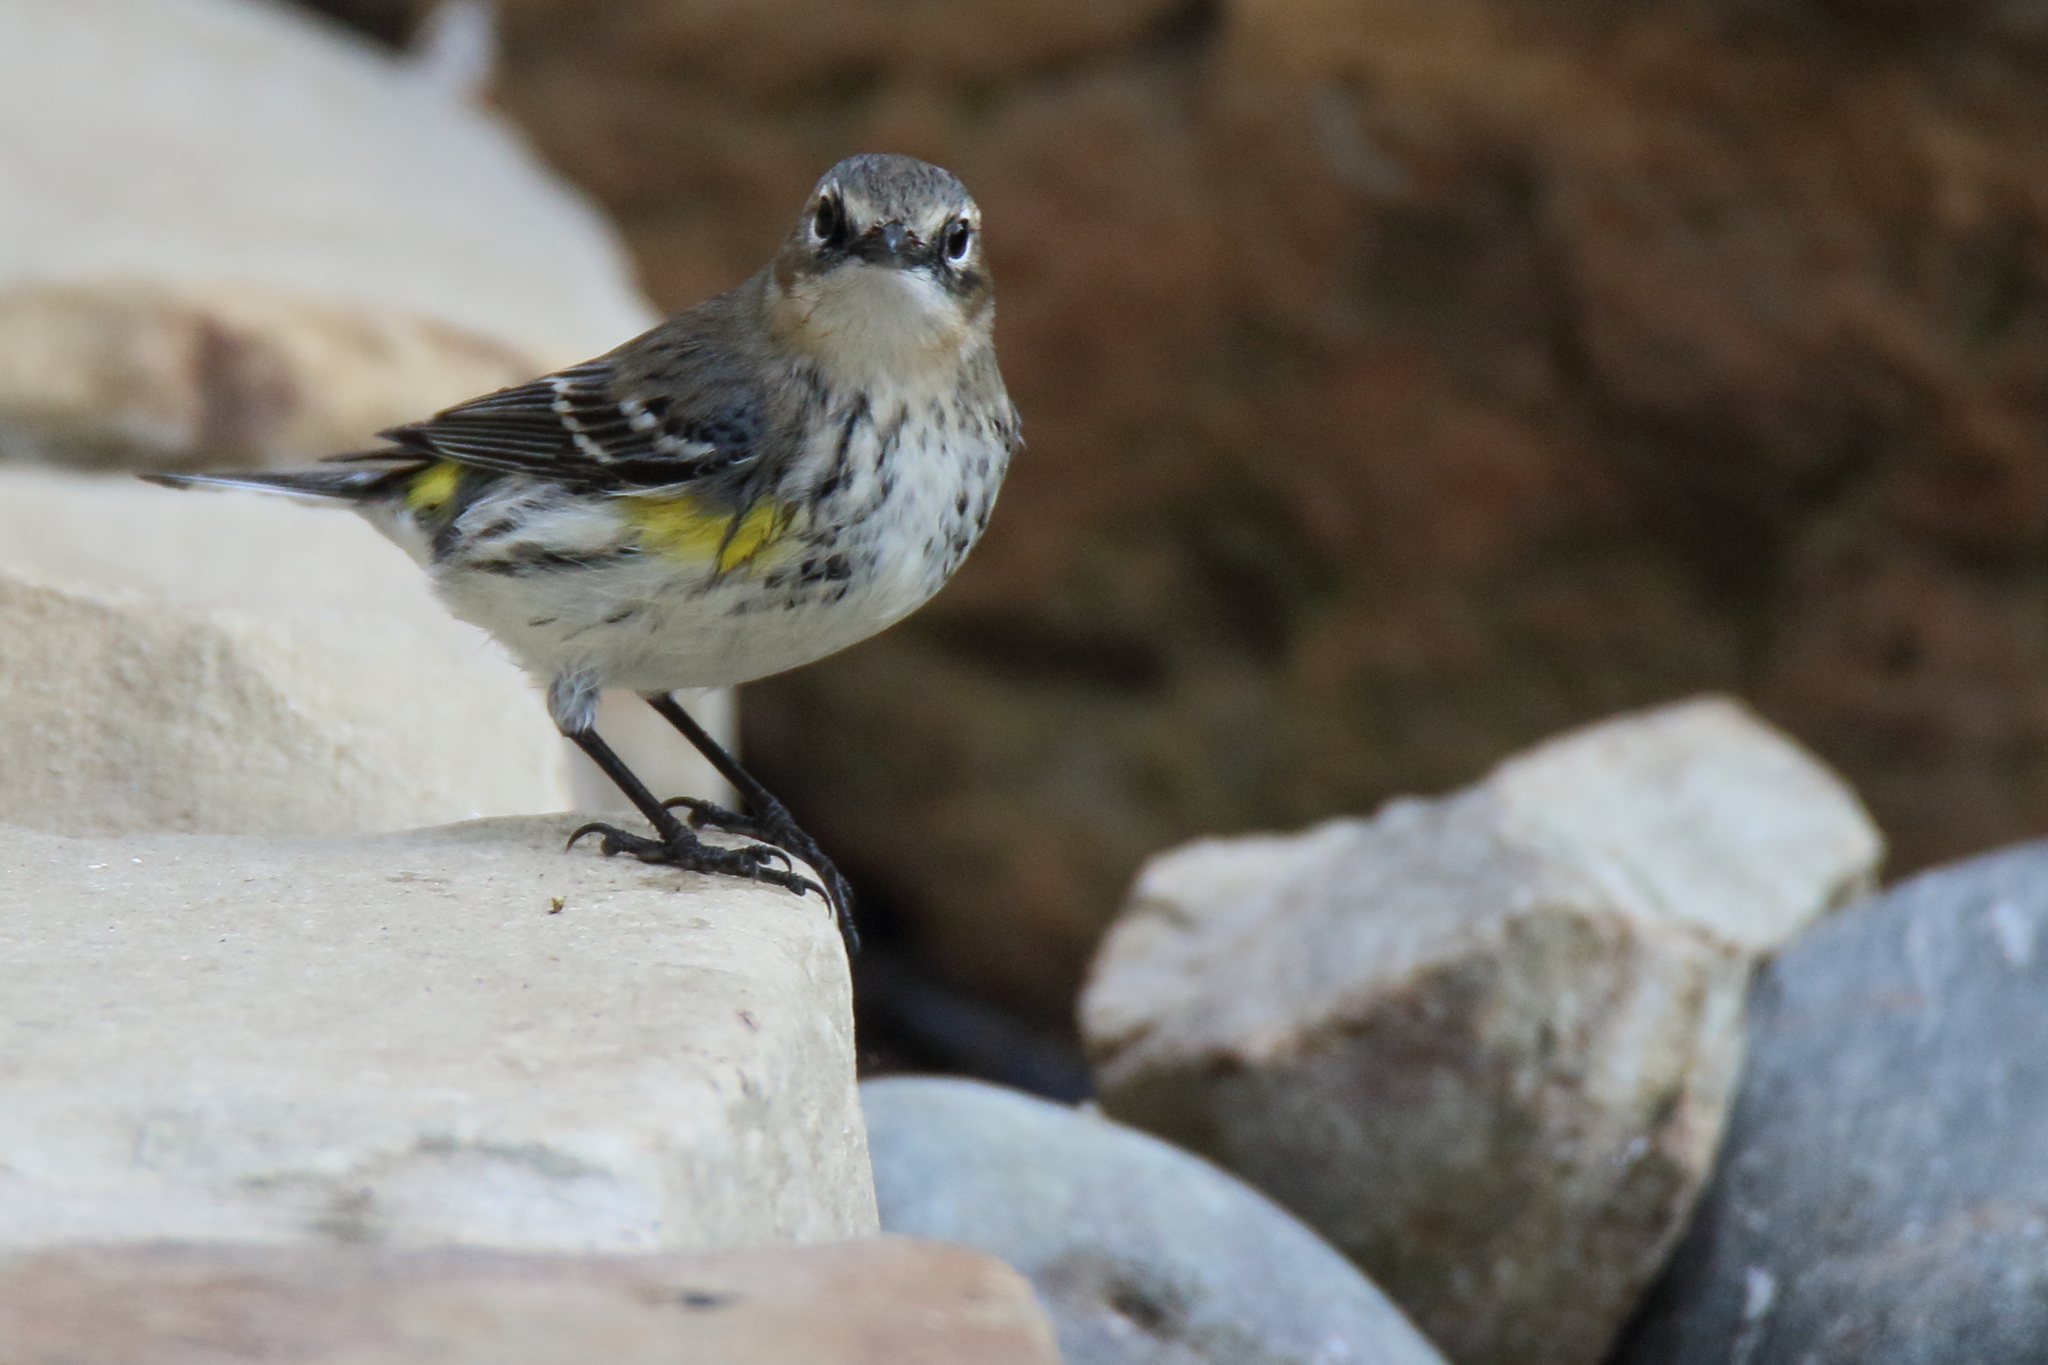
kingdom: Animalia
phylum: Chordata
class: Aves
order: Passeriformes
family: Parulidae
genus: Setophaga
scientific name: Setophaga coronata
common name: Myrtle warbler
